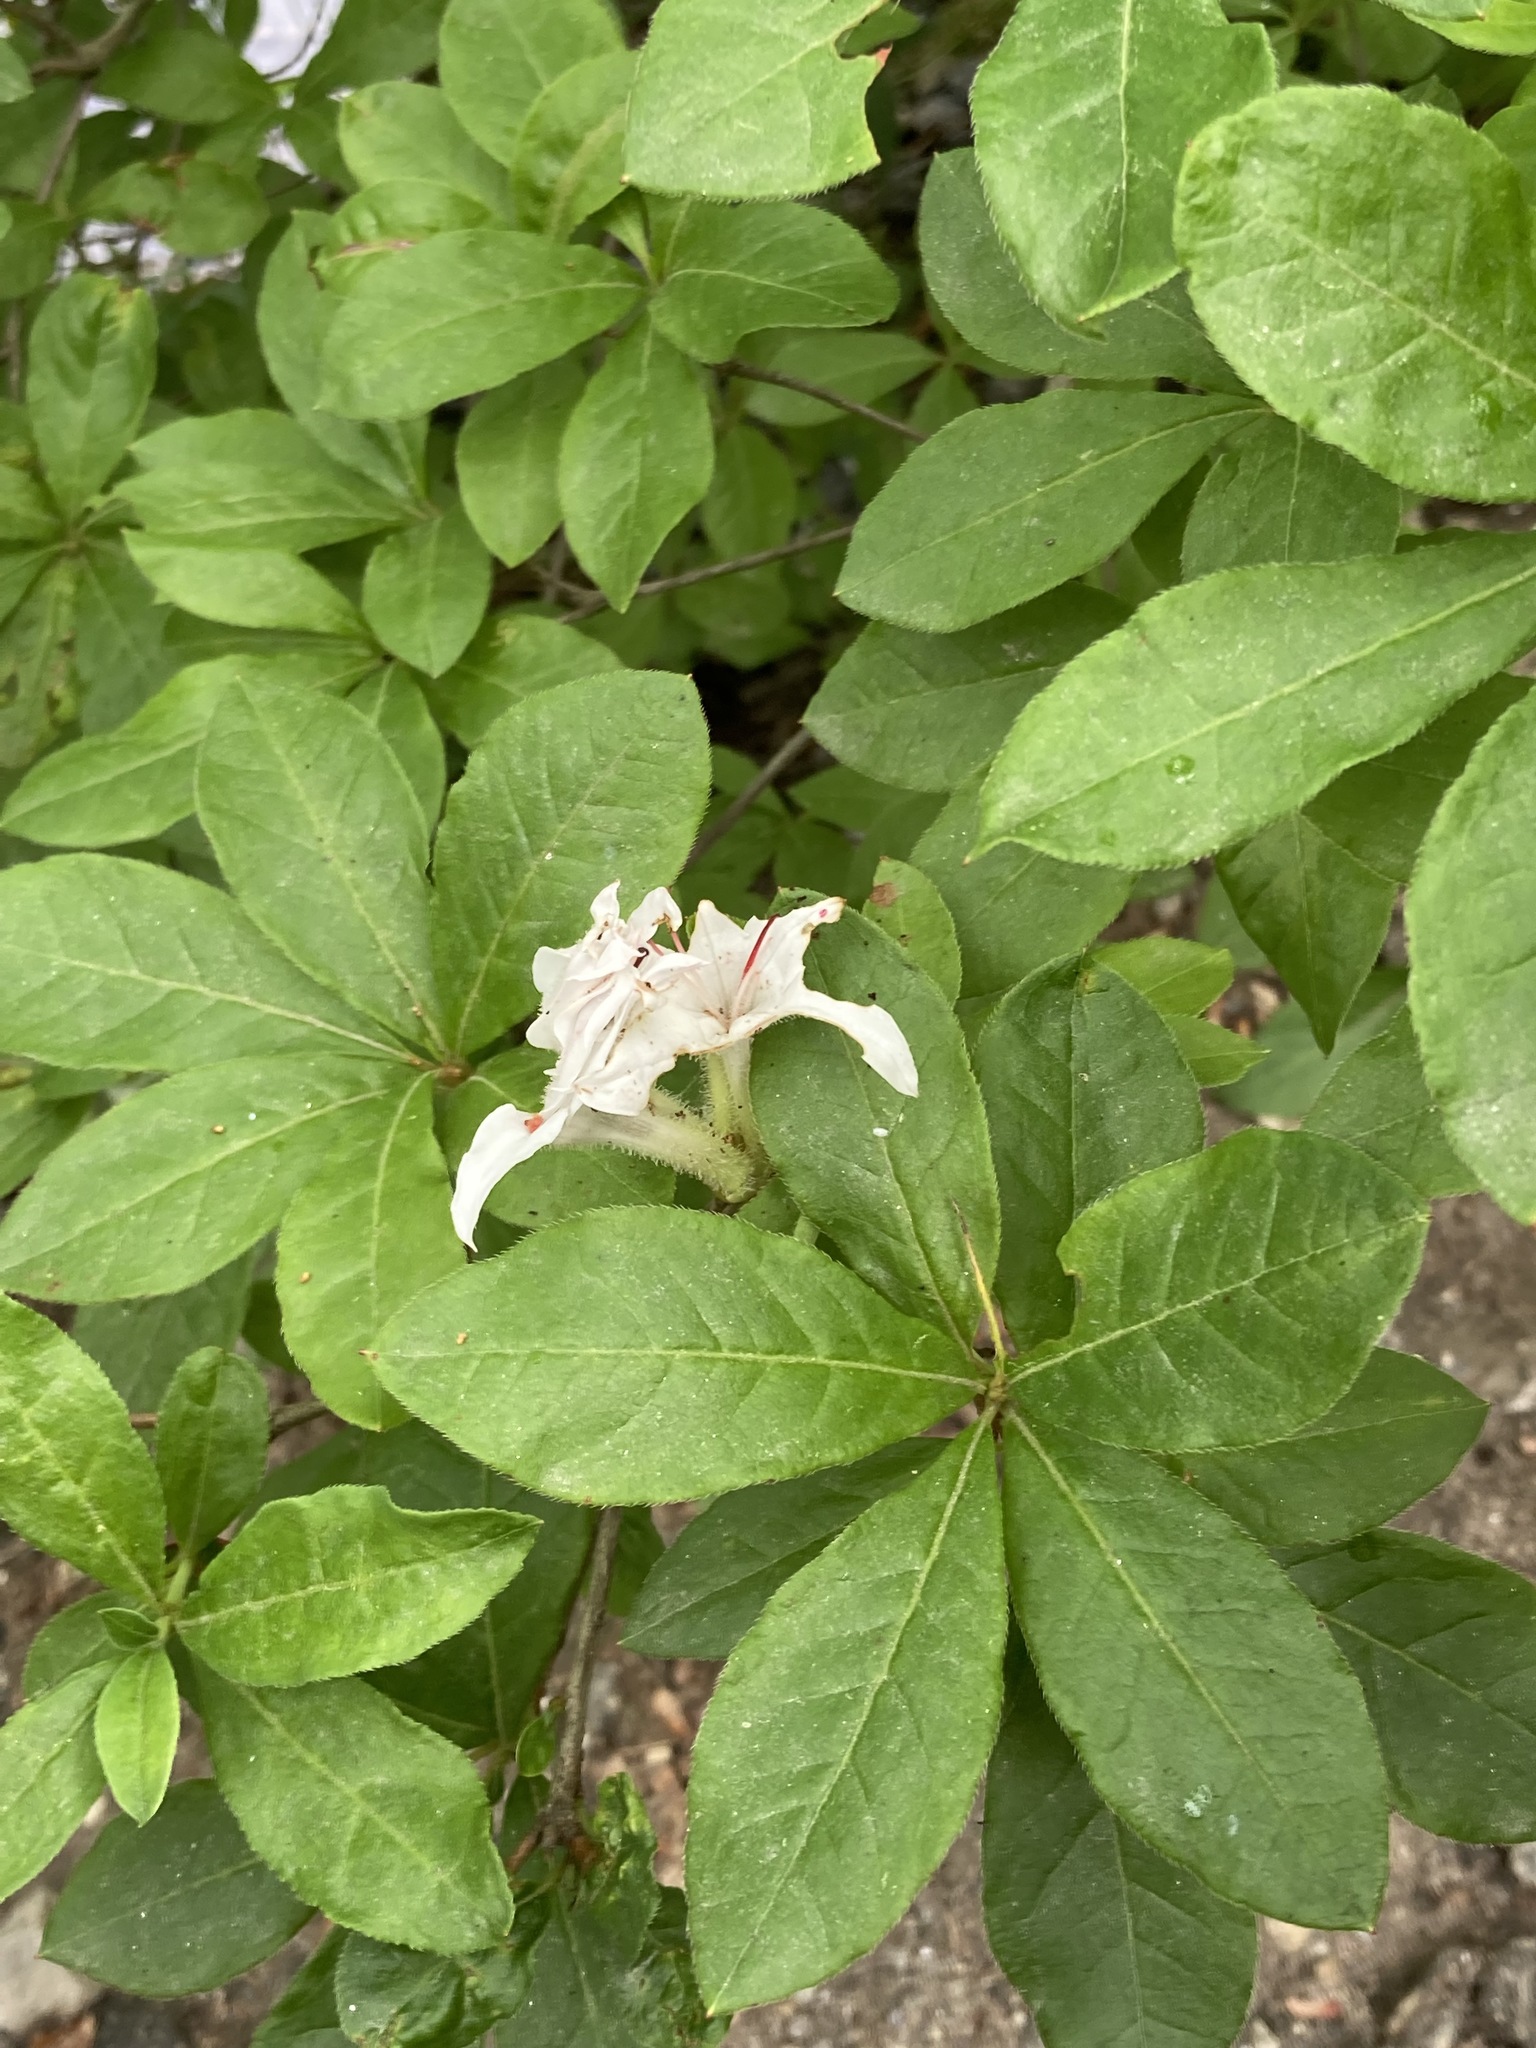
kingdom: Plantae
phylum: Tracheophyta
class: Magnoliopsida
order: Ericales
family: Ericaceae
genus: Rhododendron
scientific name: Rhododendron viscosum
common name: Clammy azalea
